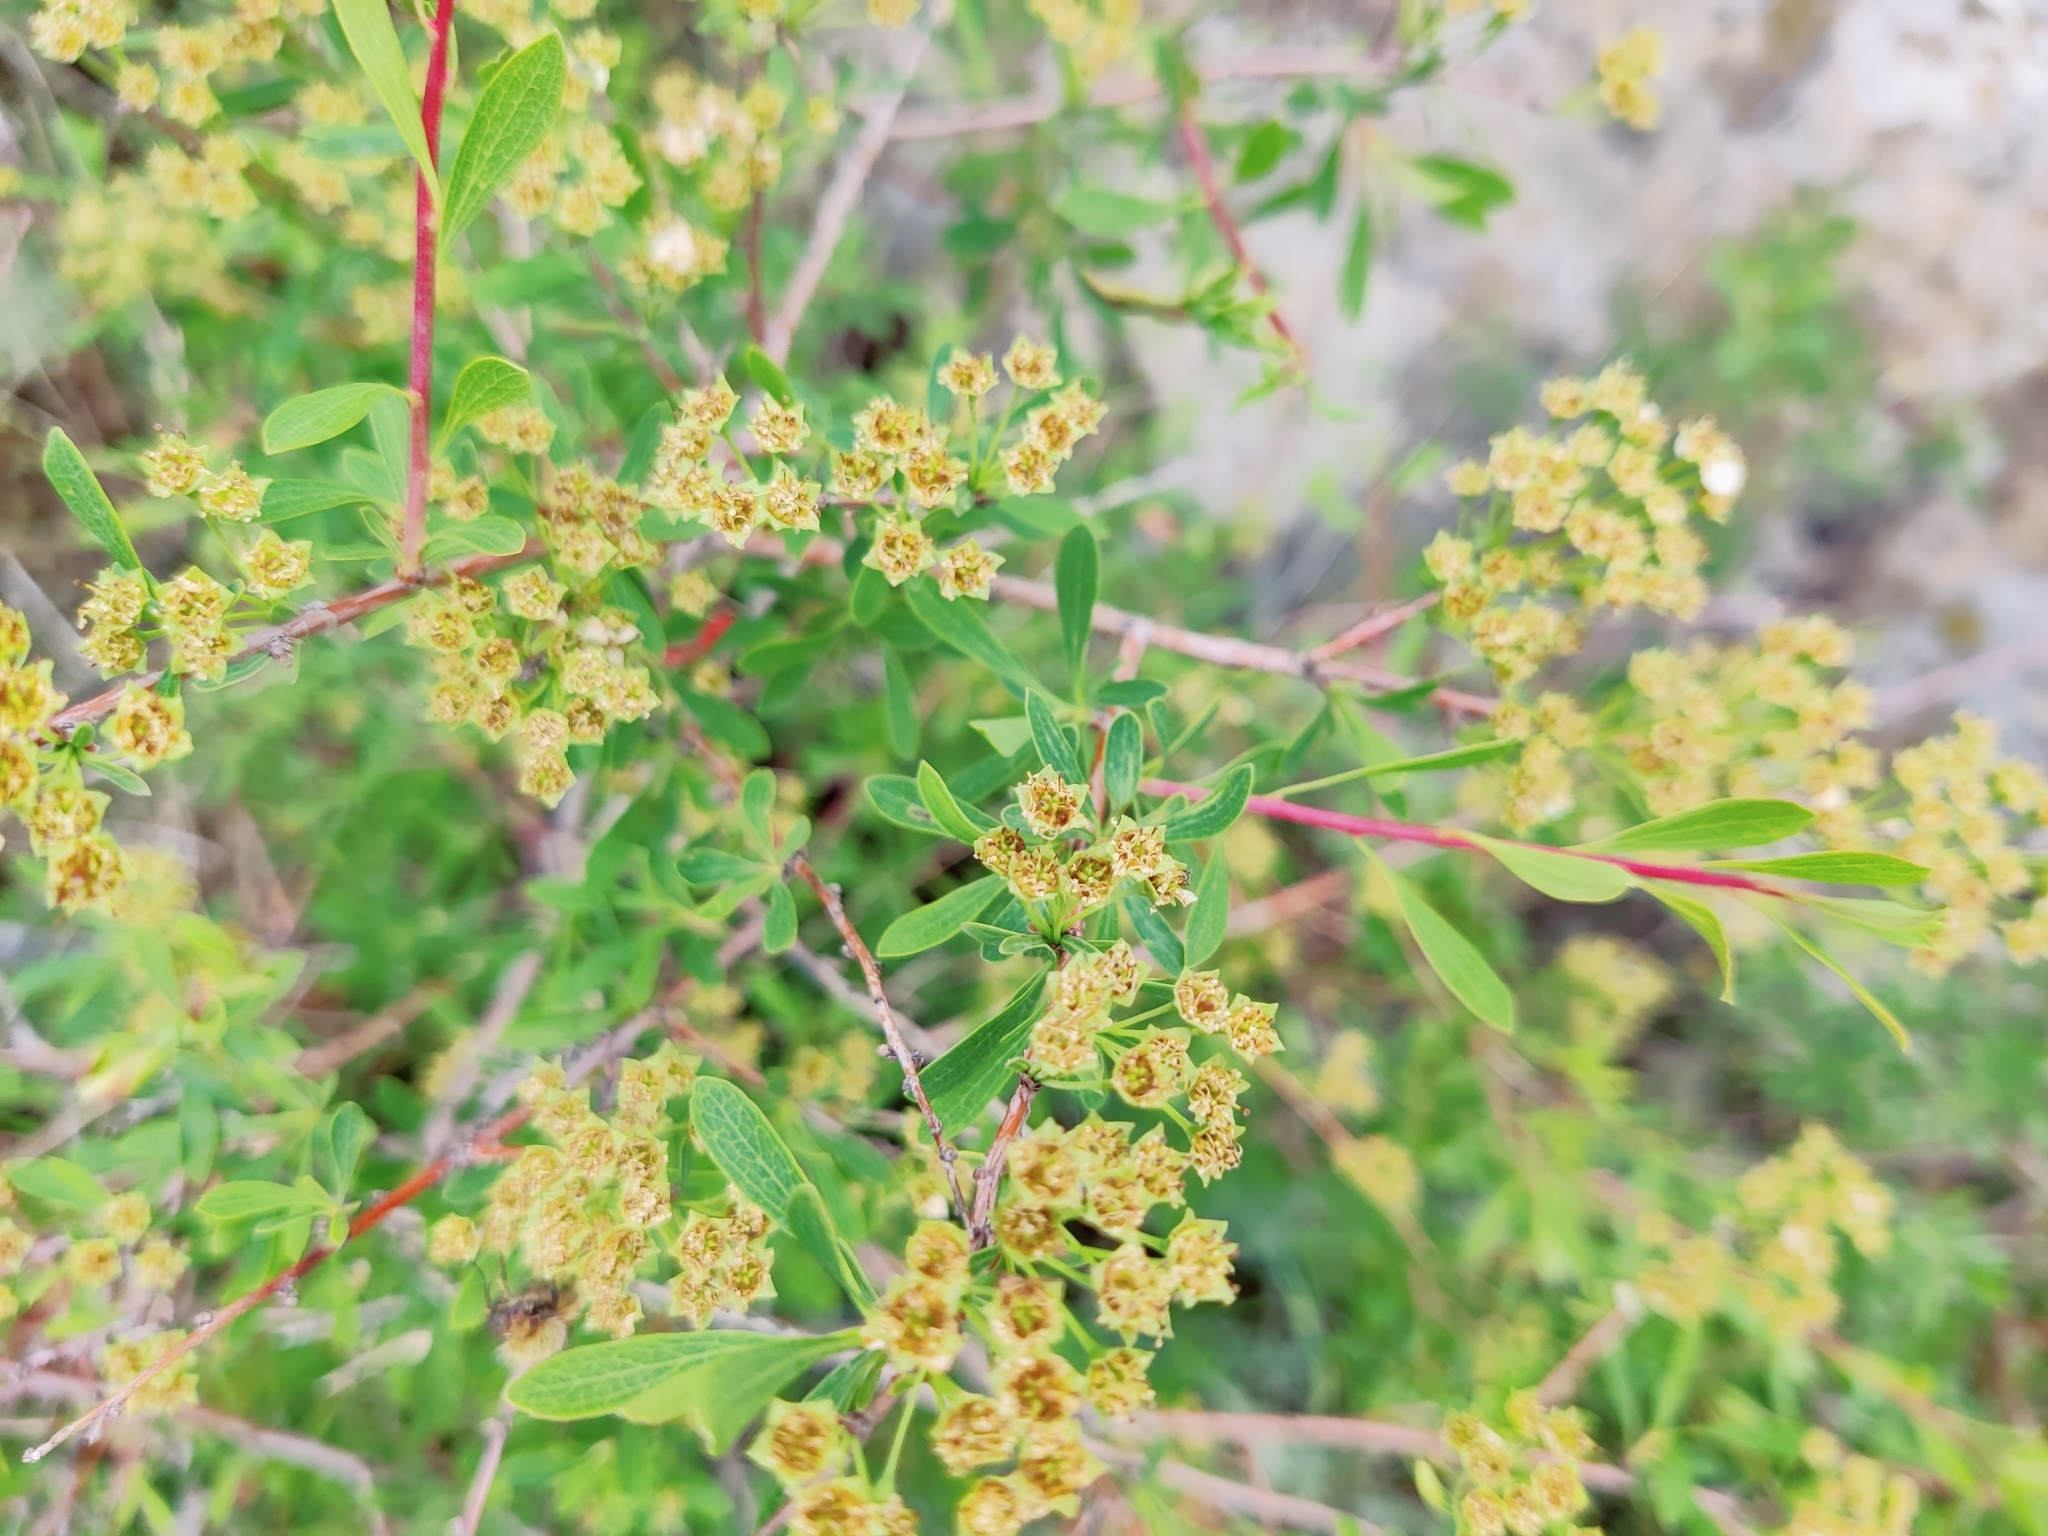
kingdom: Plantae
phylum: Tracheophyta
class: Magnoliopsida
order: Rosales
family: Rosaceae
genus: Spiraea
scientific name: Spiraea crenata
